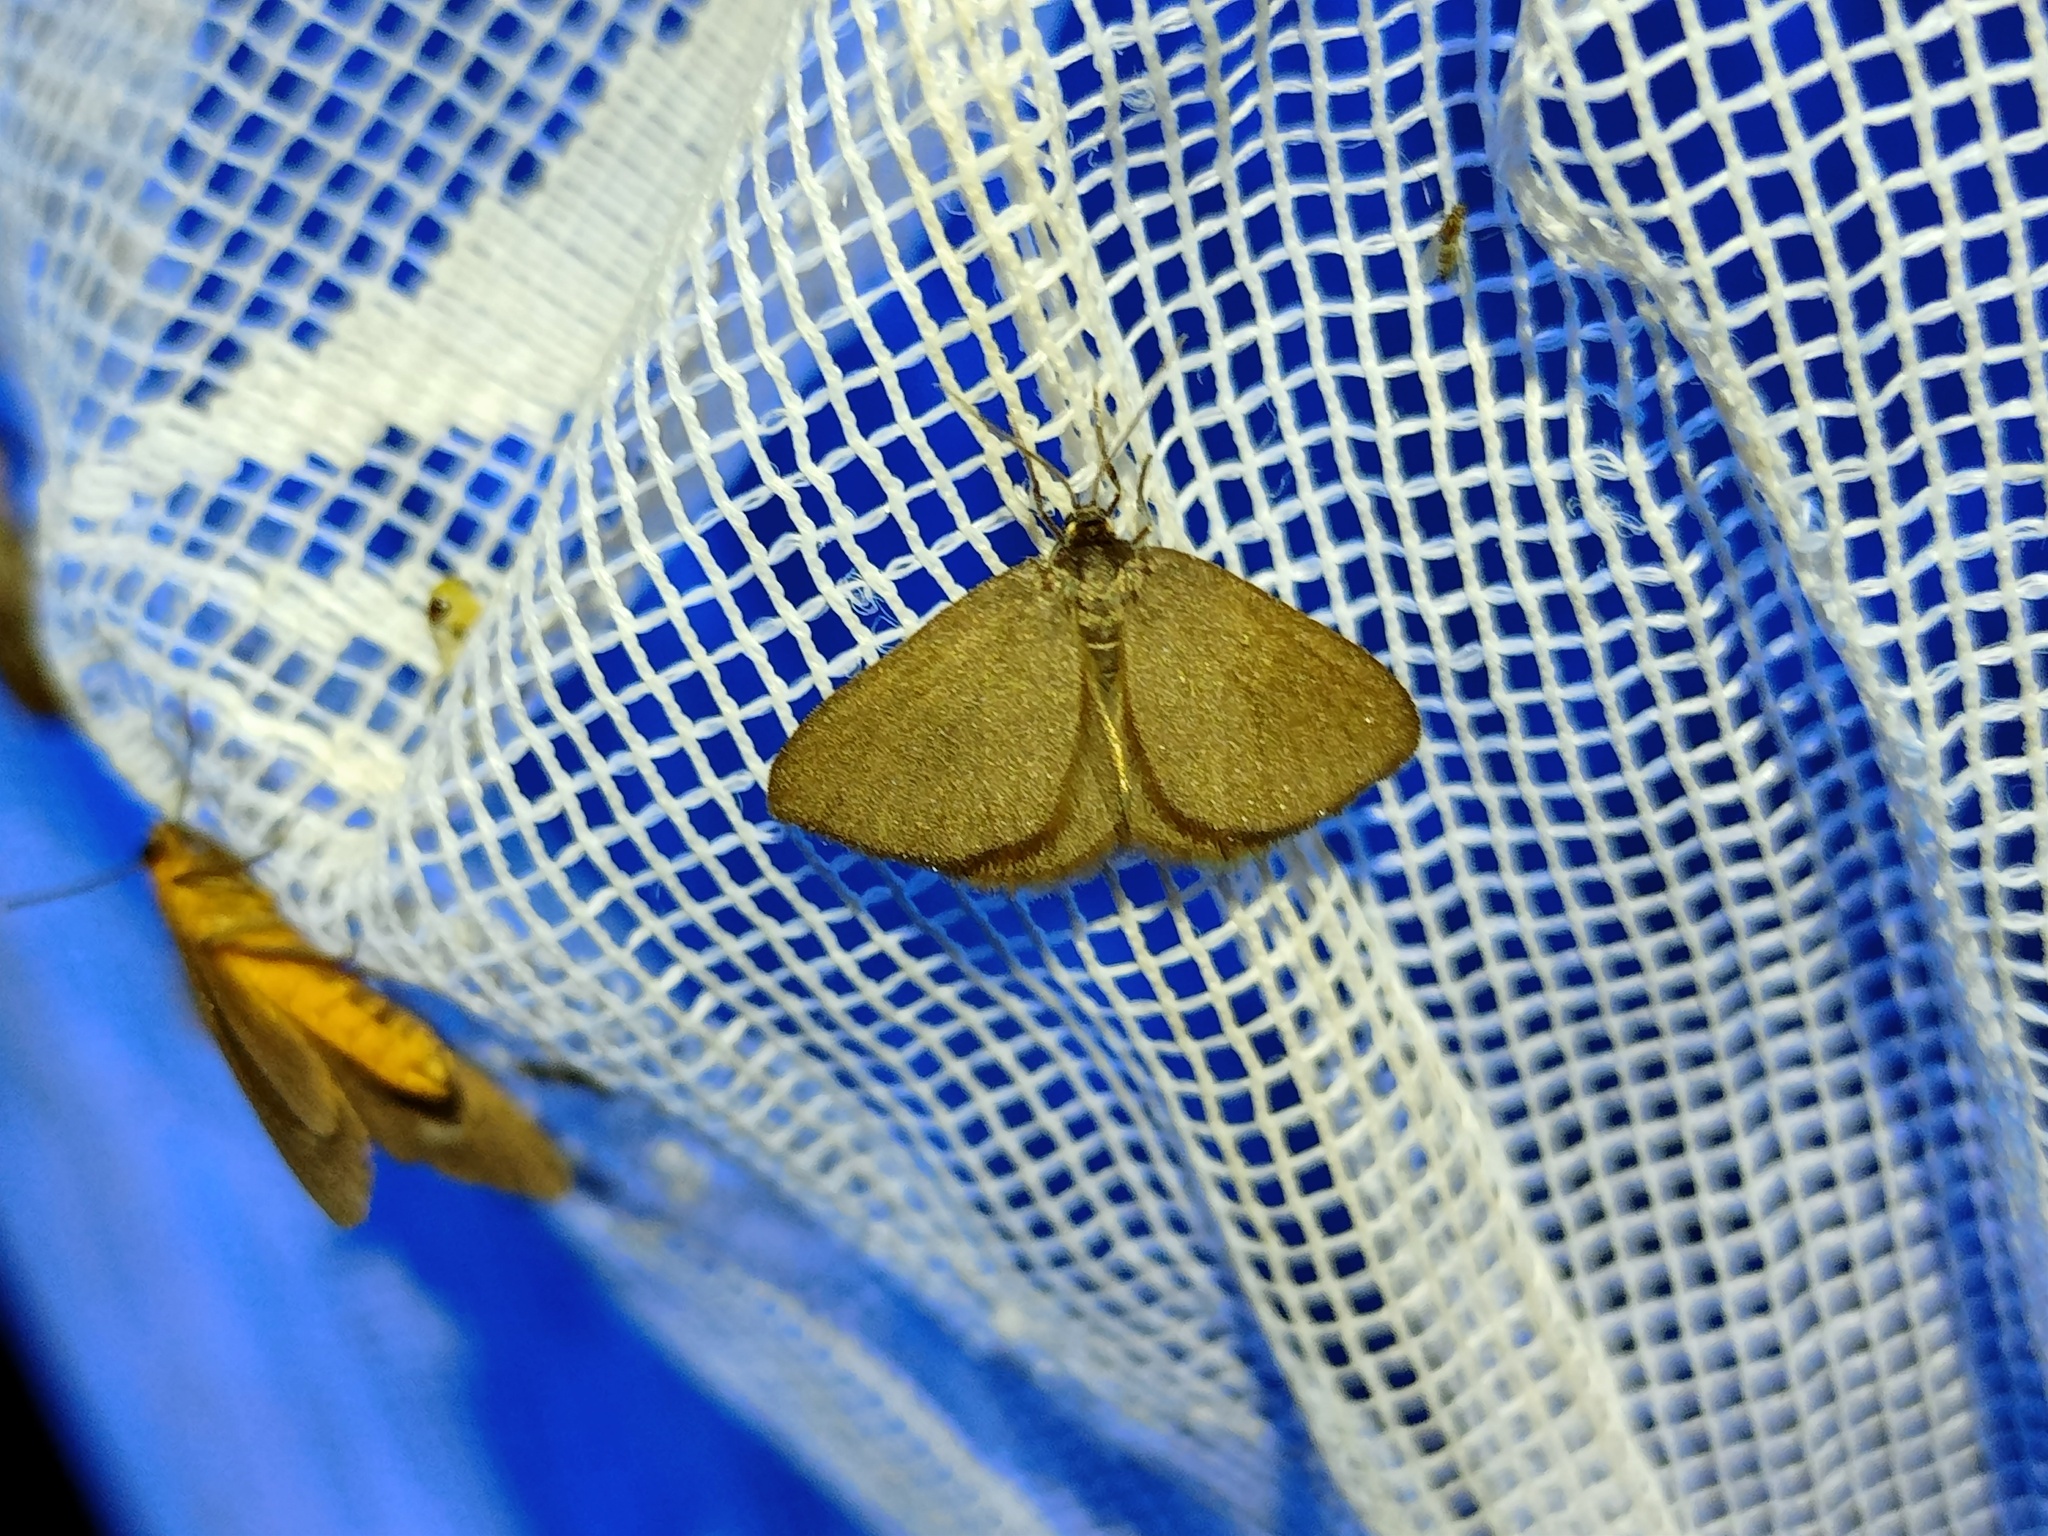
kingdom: Animalia
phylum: Arthropoda
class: Insecta
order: Lepidoptera
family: Geometridae
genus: Minoa
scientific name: Minoa murinata
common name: Drab looper
